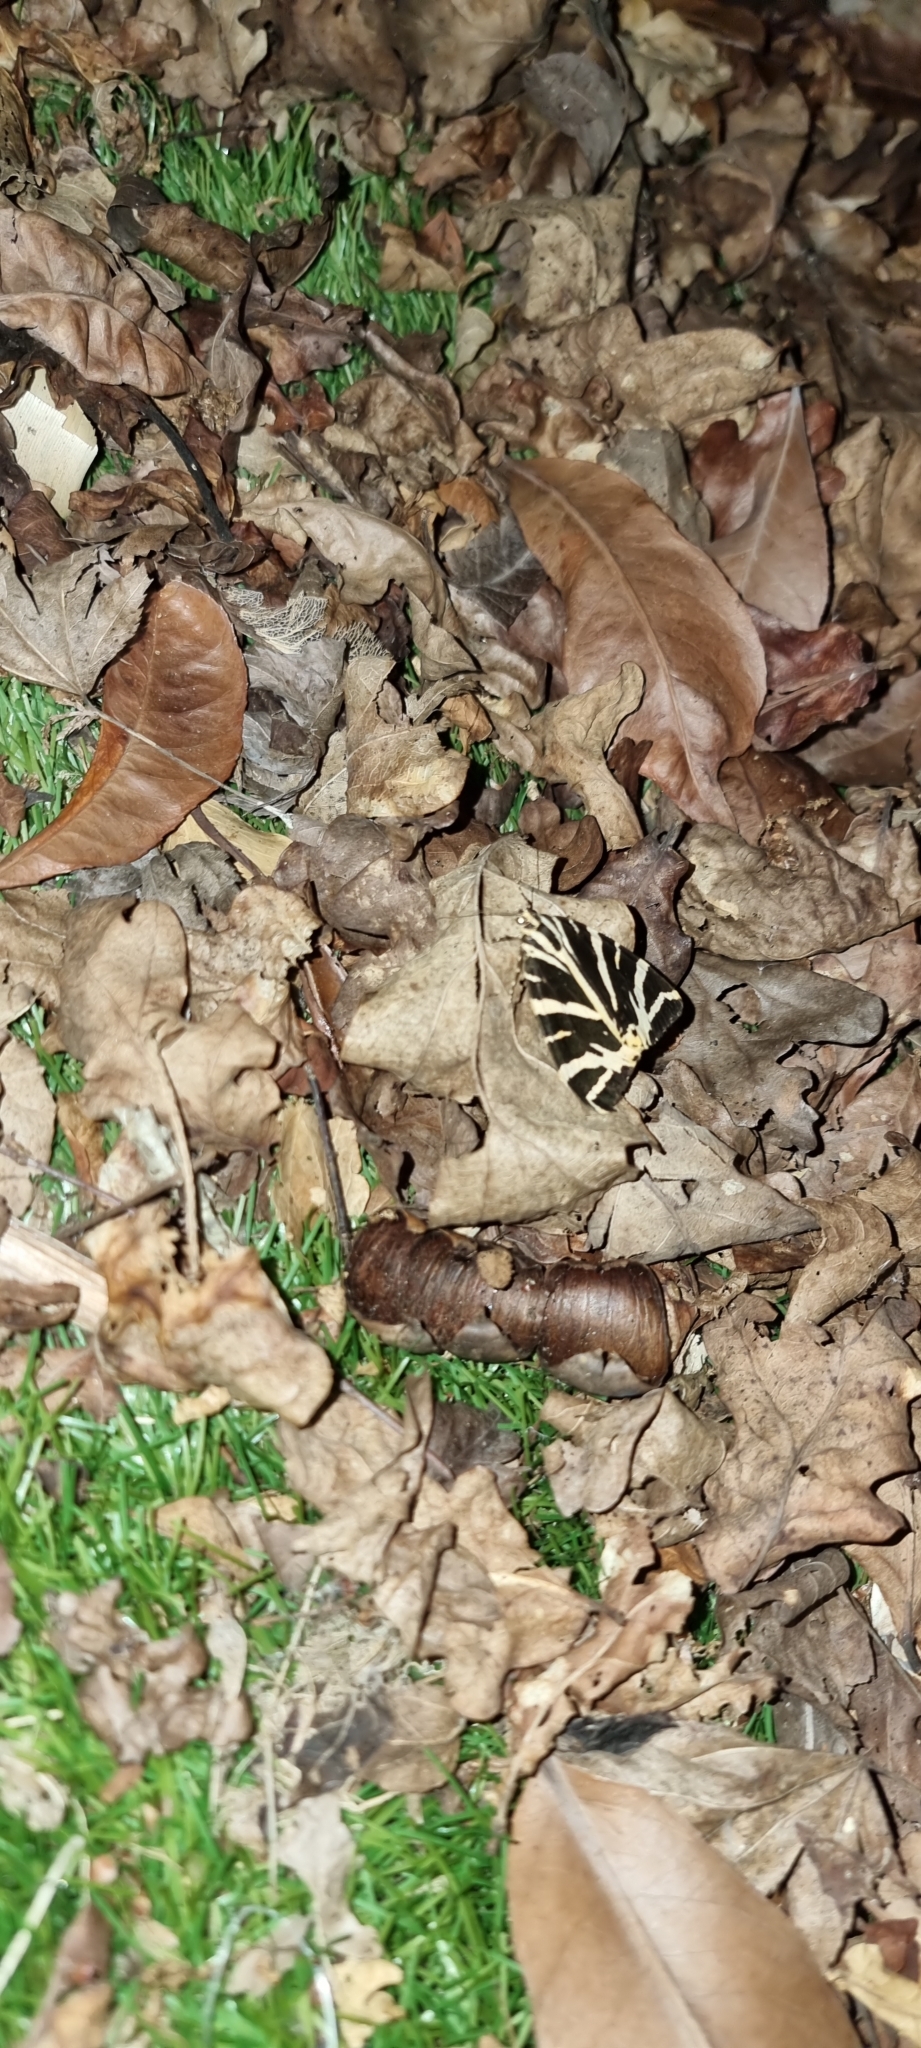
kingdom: Animalia
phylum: Arthropoda
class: Insecta
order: Lepidoptera
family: Erebidae
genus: Euplagia
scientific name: Euplagia quadripunctaria
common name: Jersey tiger
